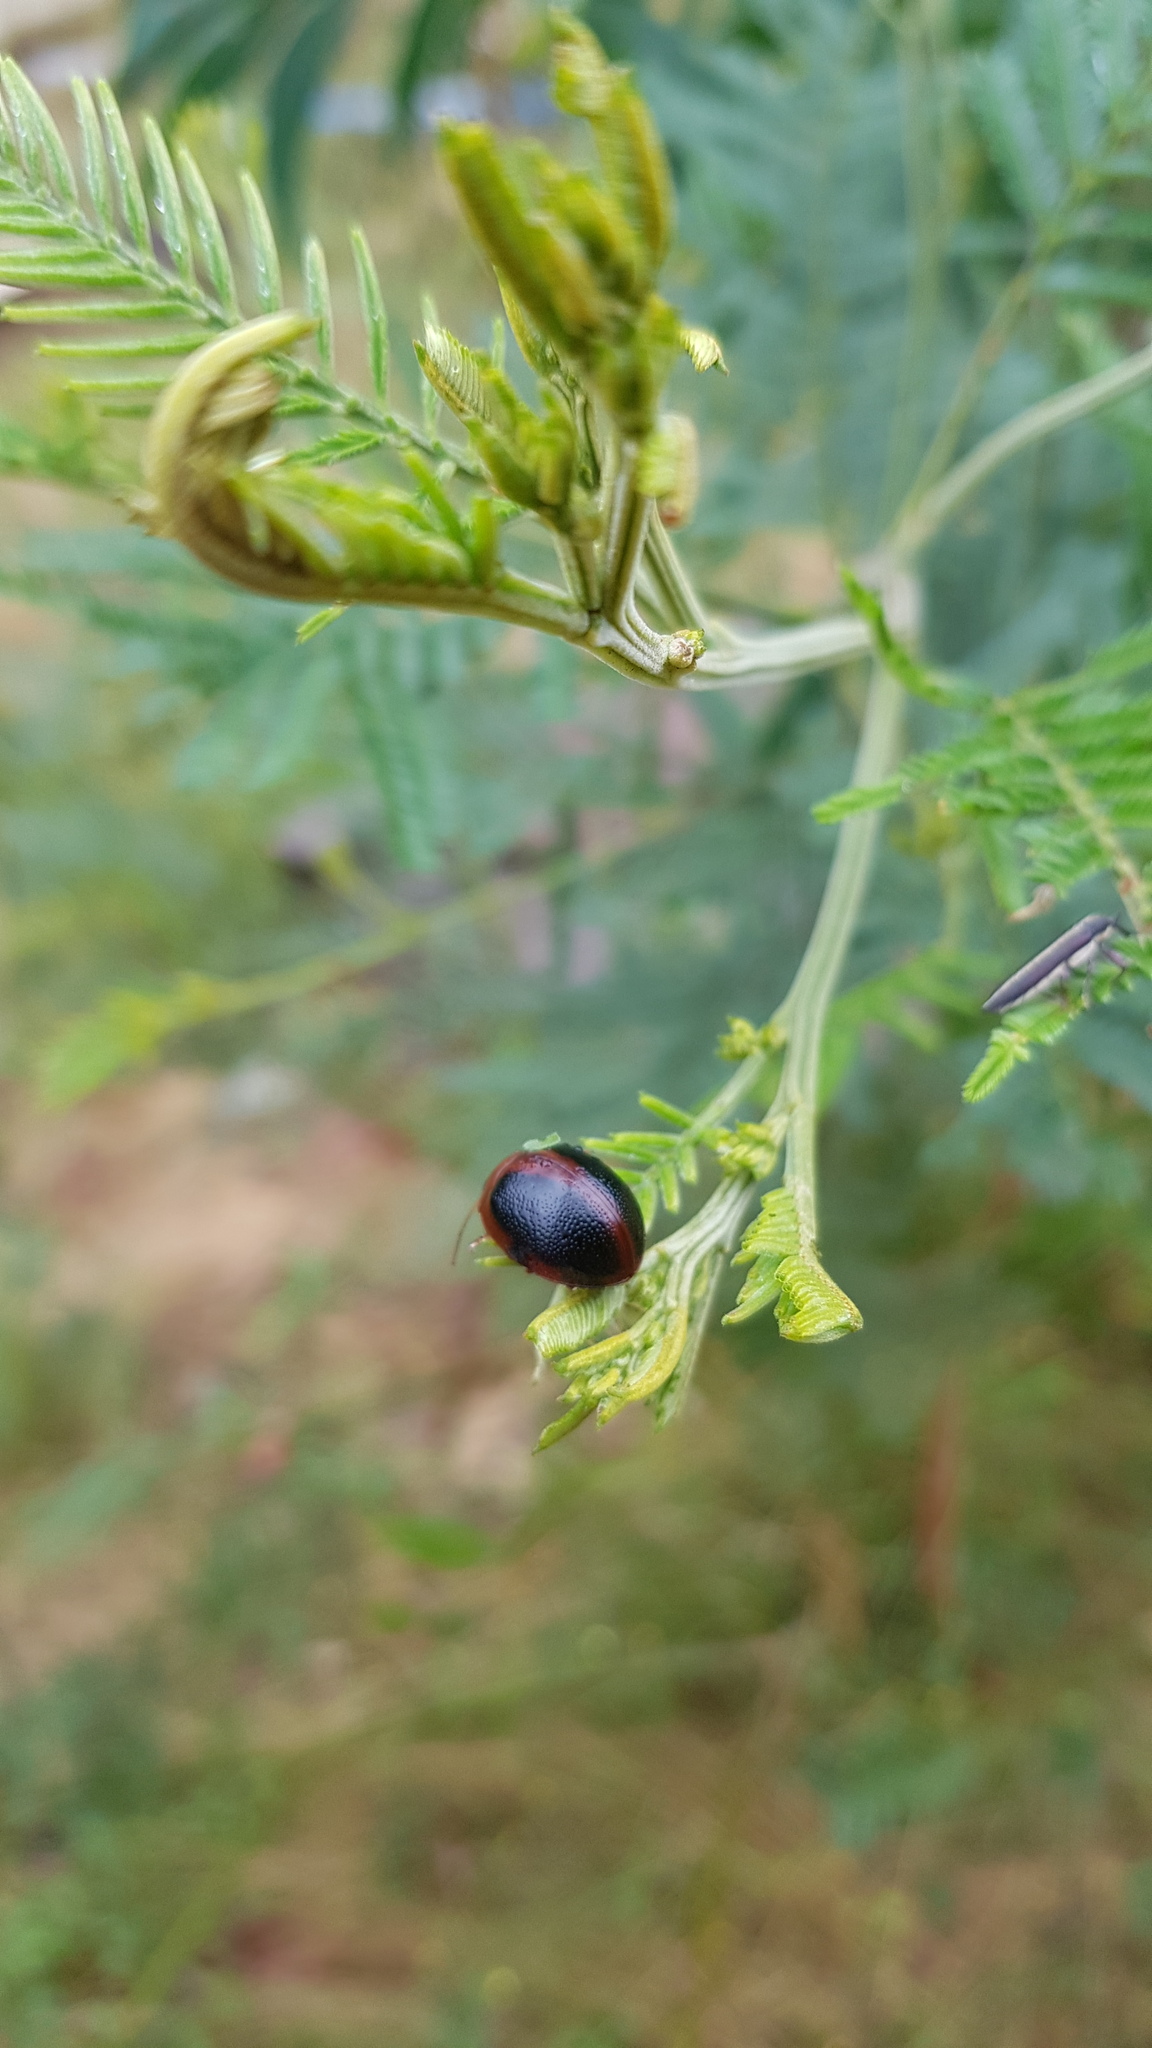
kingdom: Animalia
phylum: Arthropoda
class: Insecta
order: Coleoptera
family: Chrysomelidae
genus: Dicranosterna
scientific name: Dicranosterna
